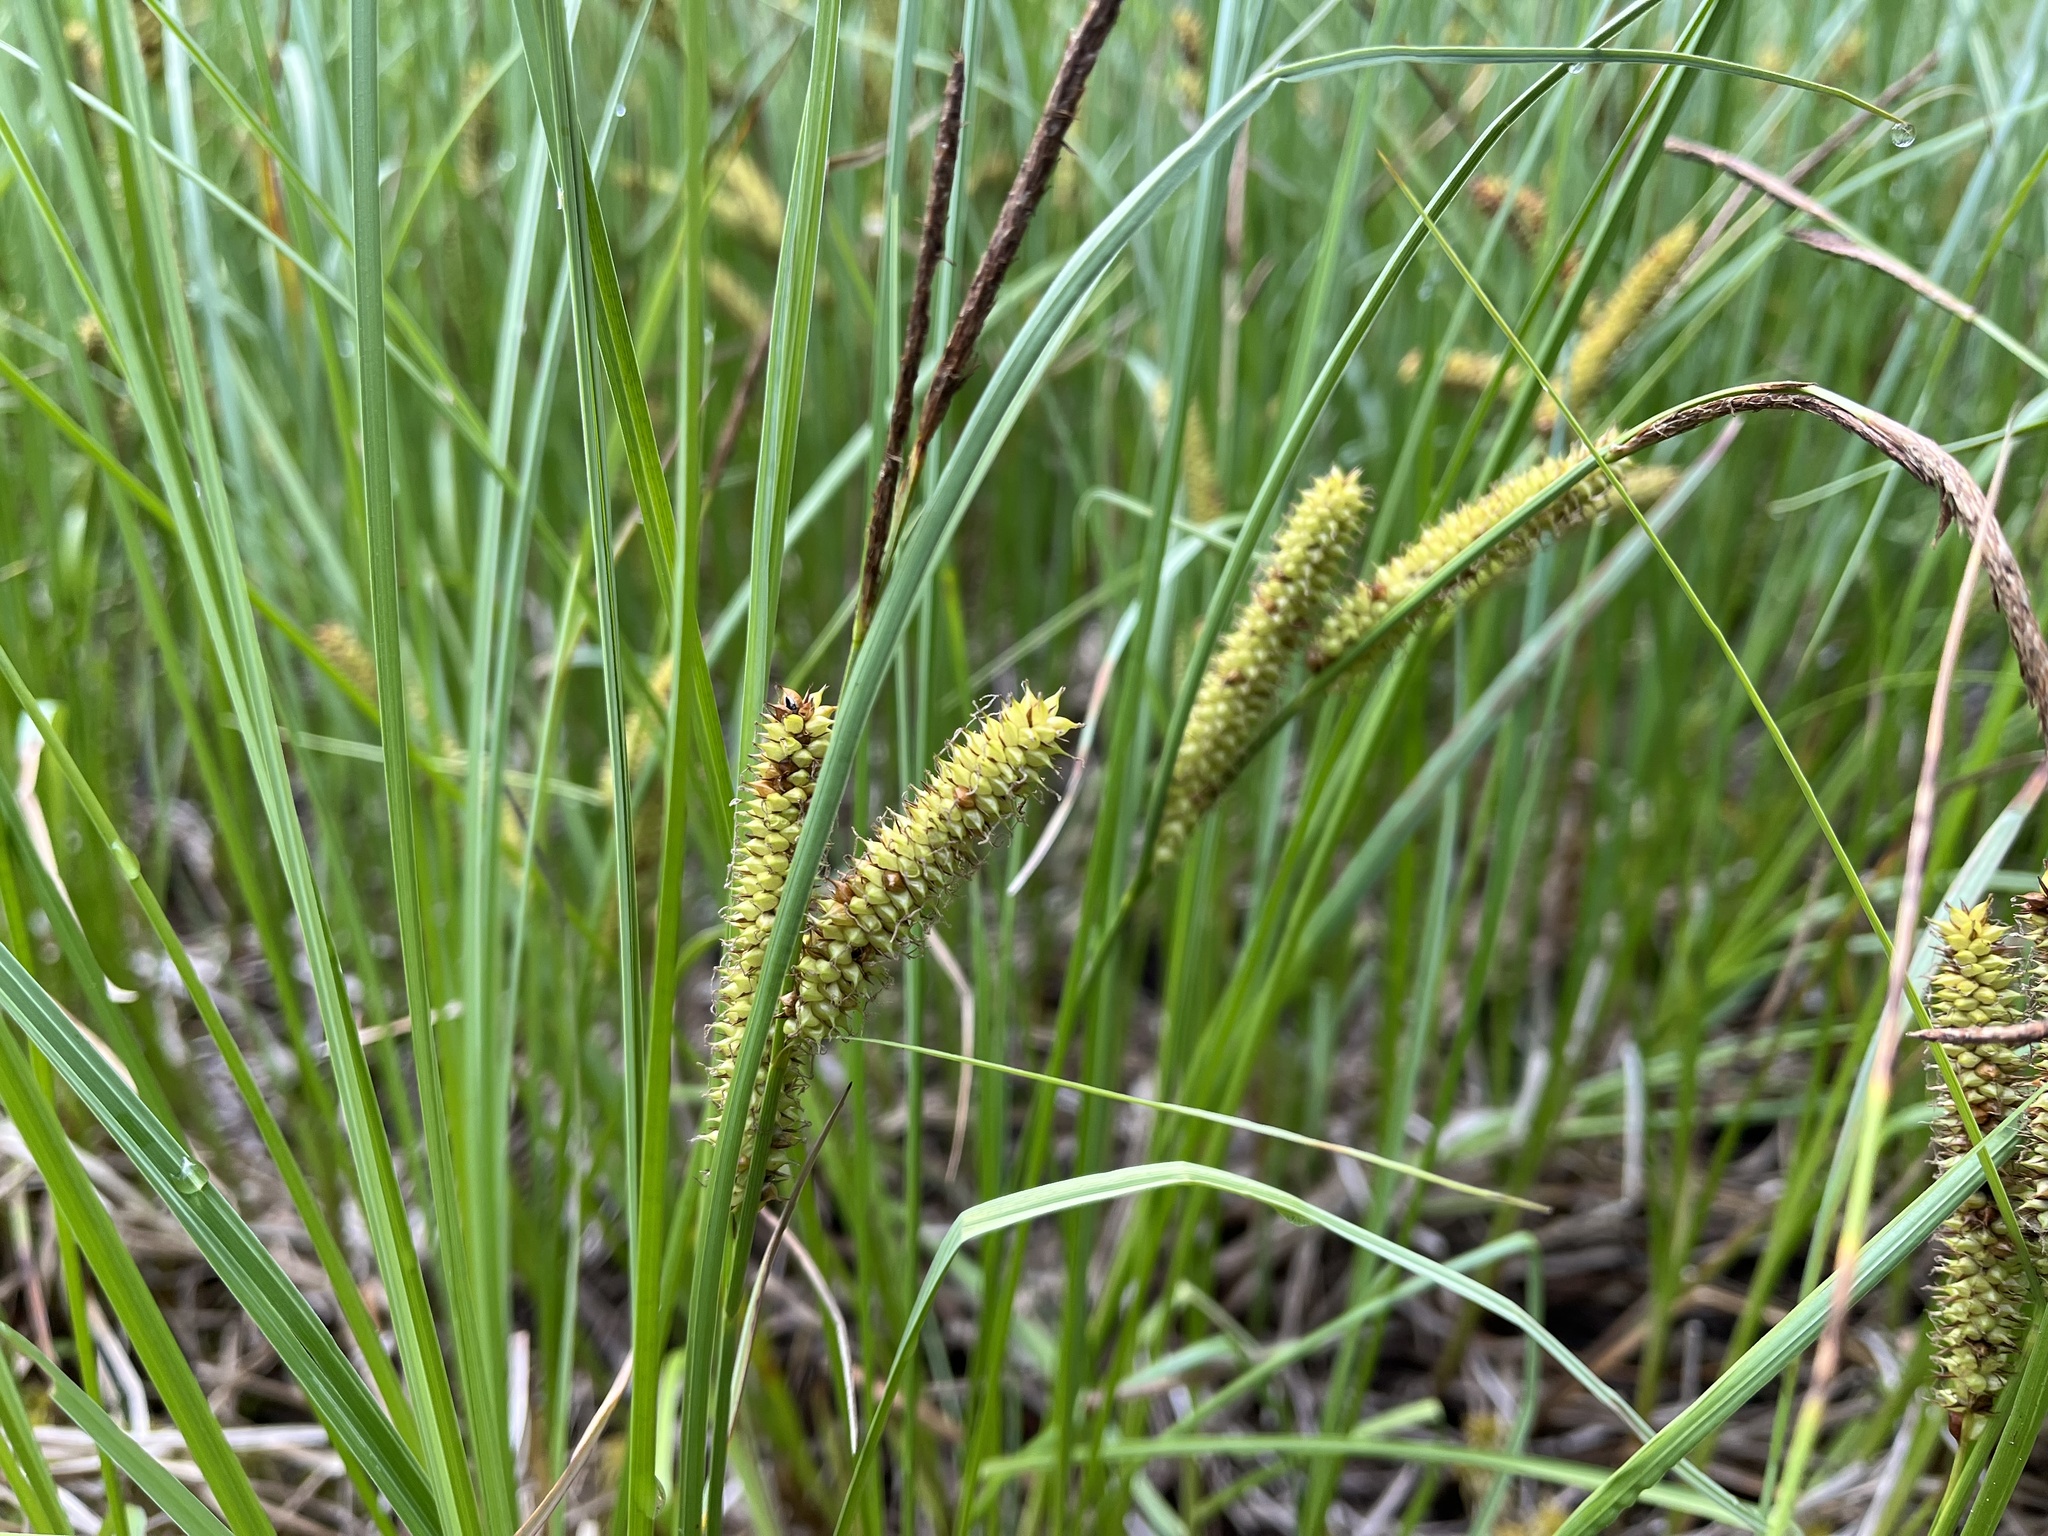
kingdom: Plantae
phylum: Tracheophyta
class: Liliopsida
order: Poales
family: Cyperaceae
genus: Carex
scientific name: Carex rostrata
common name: Bottle sedge
